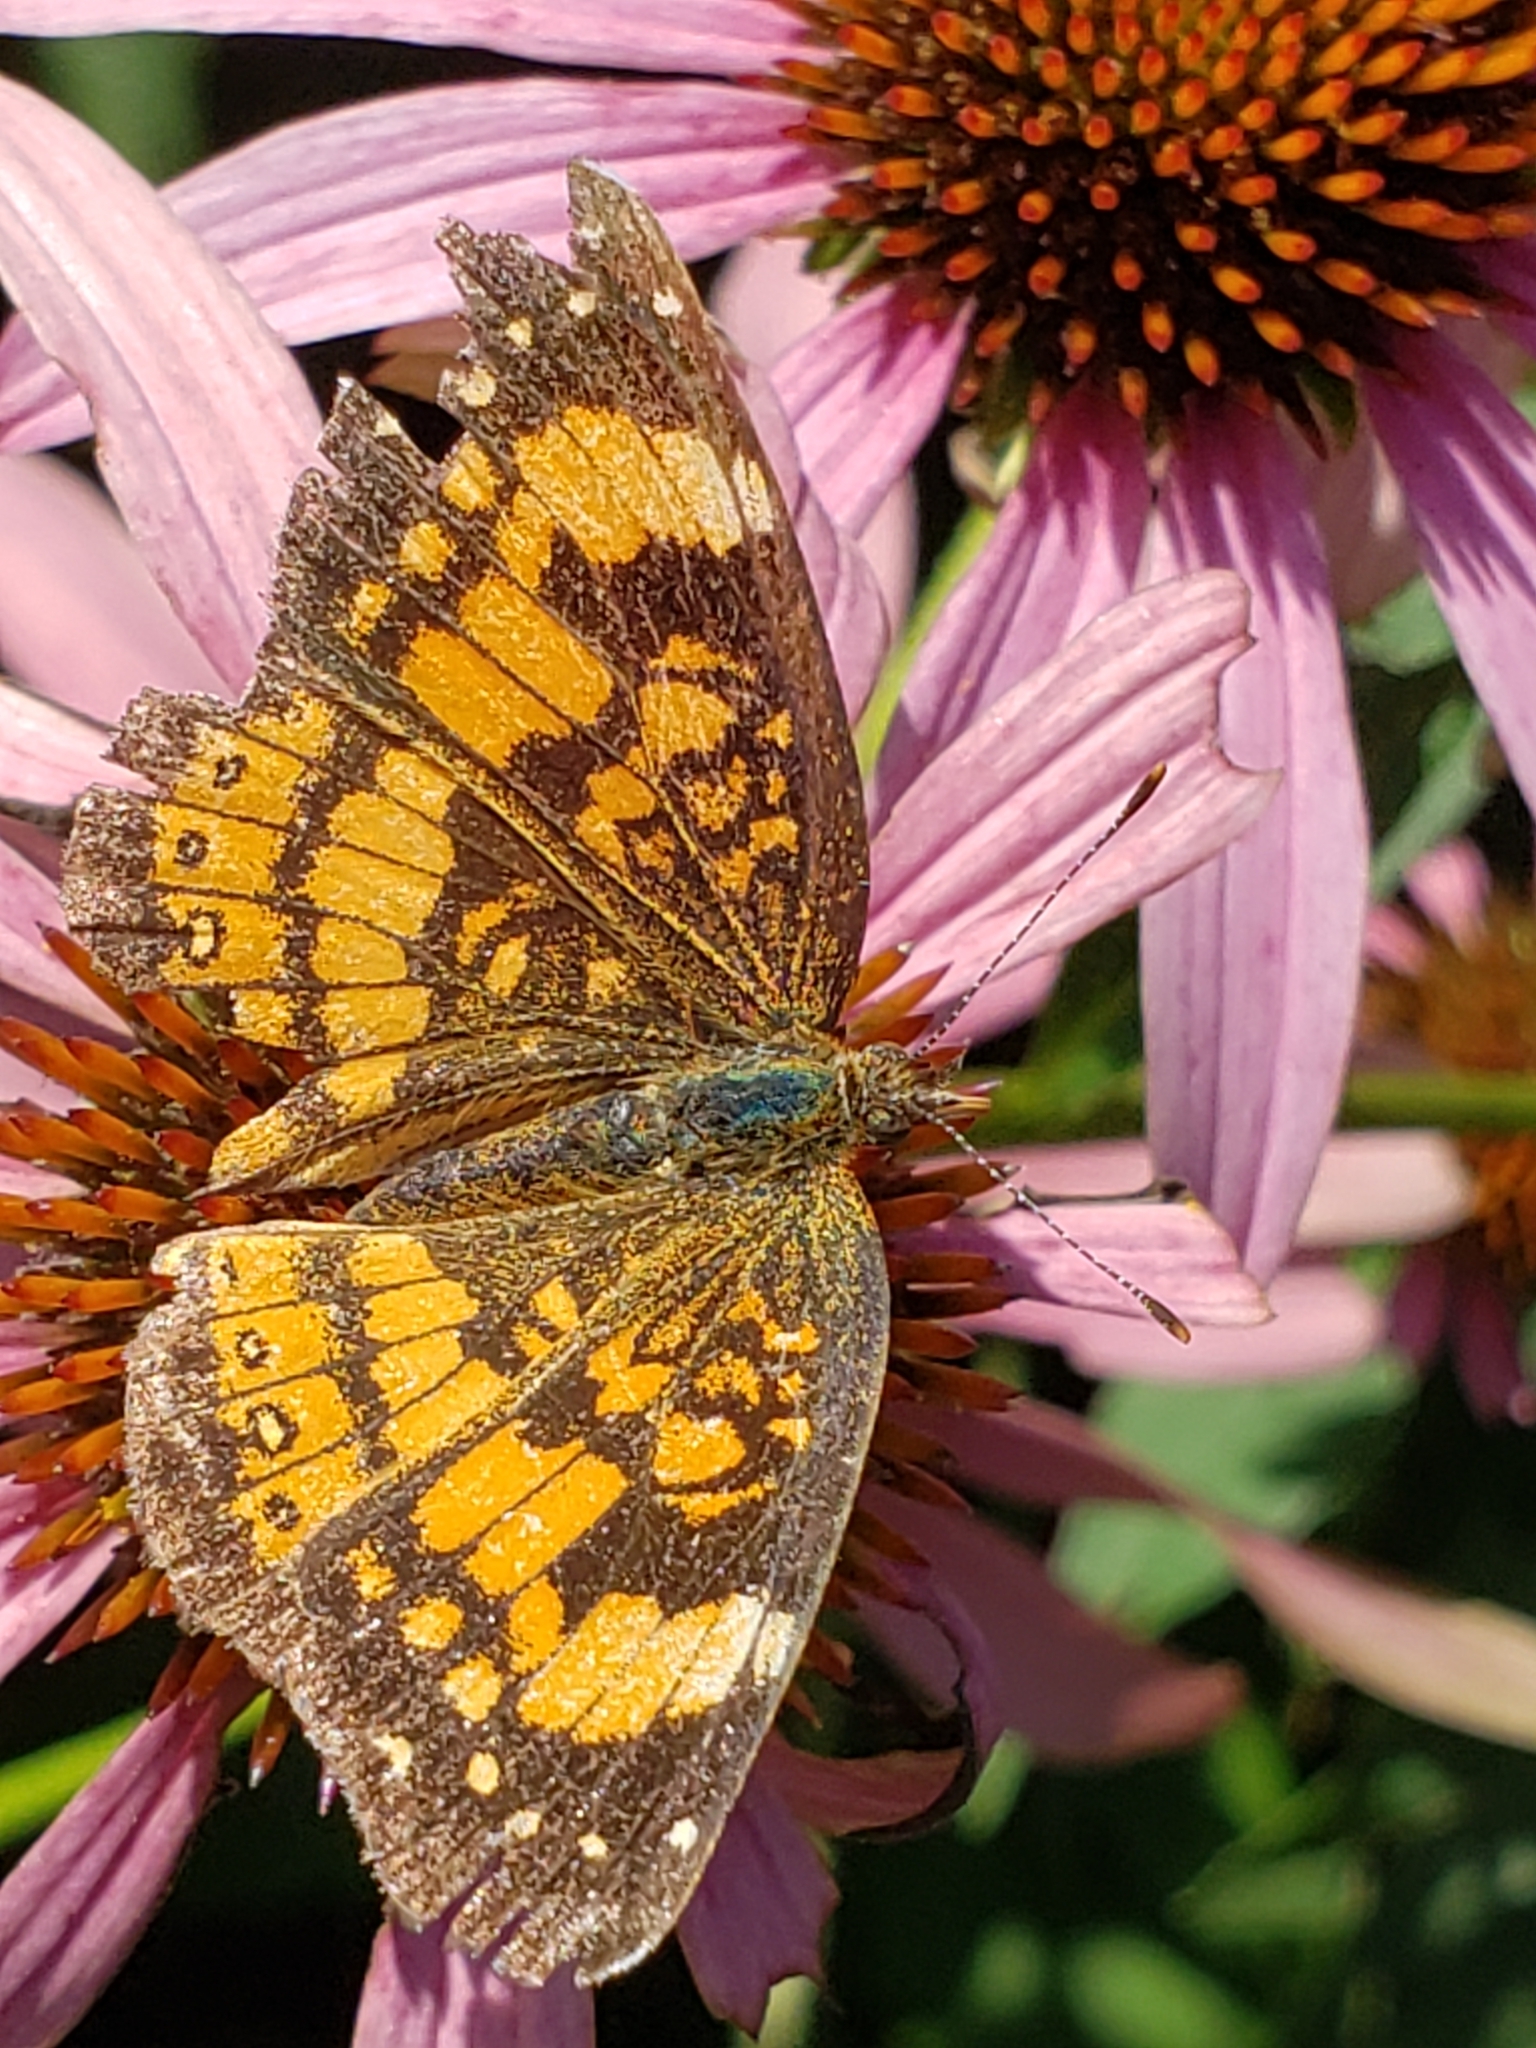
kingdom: Animalia
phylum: Arthropoda
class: Insecta
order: Lepidoptera
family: Nymphalidae
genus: Chlosyne
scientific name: Chlosyne nycteis
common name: Silvery checkerspot
